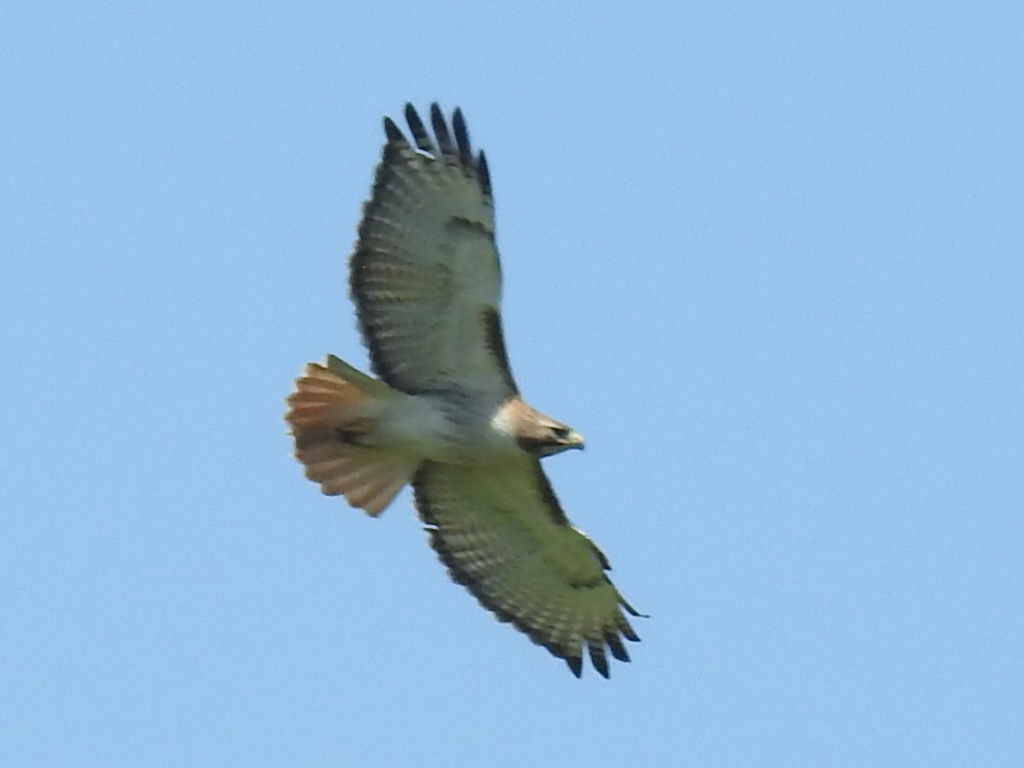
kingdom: Animalia
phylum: Chordata
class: Aves
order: Accipitriformes
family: Accipitridae
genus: Buteo
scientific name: Buteo jamaicensis
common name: Red-tailed hawk
